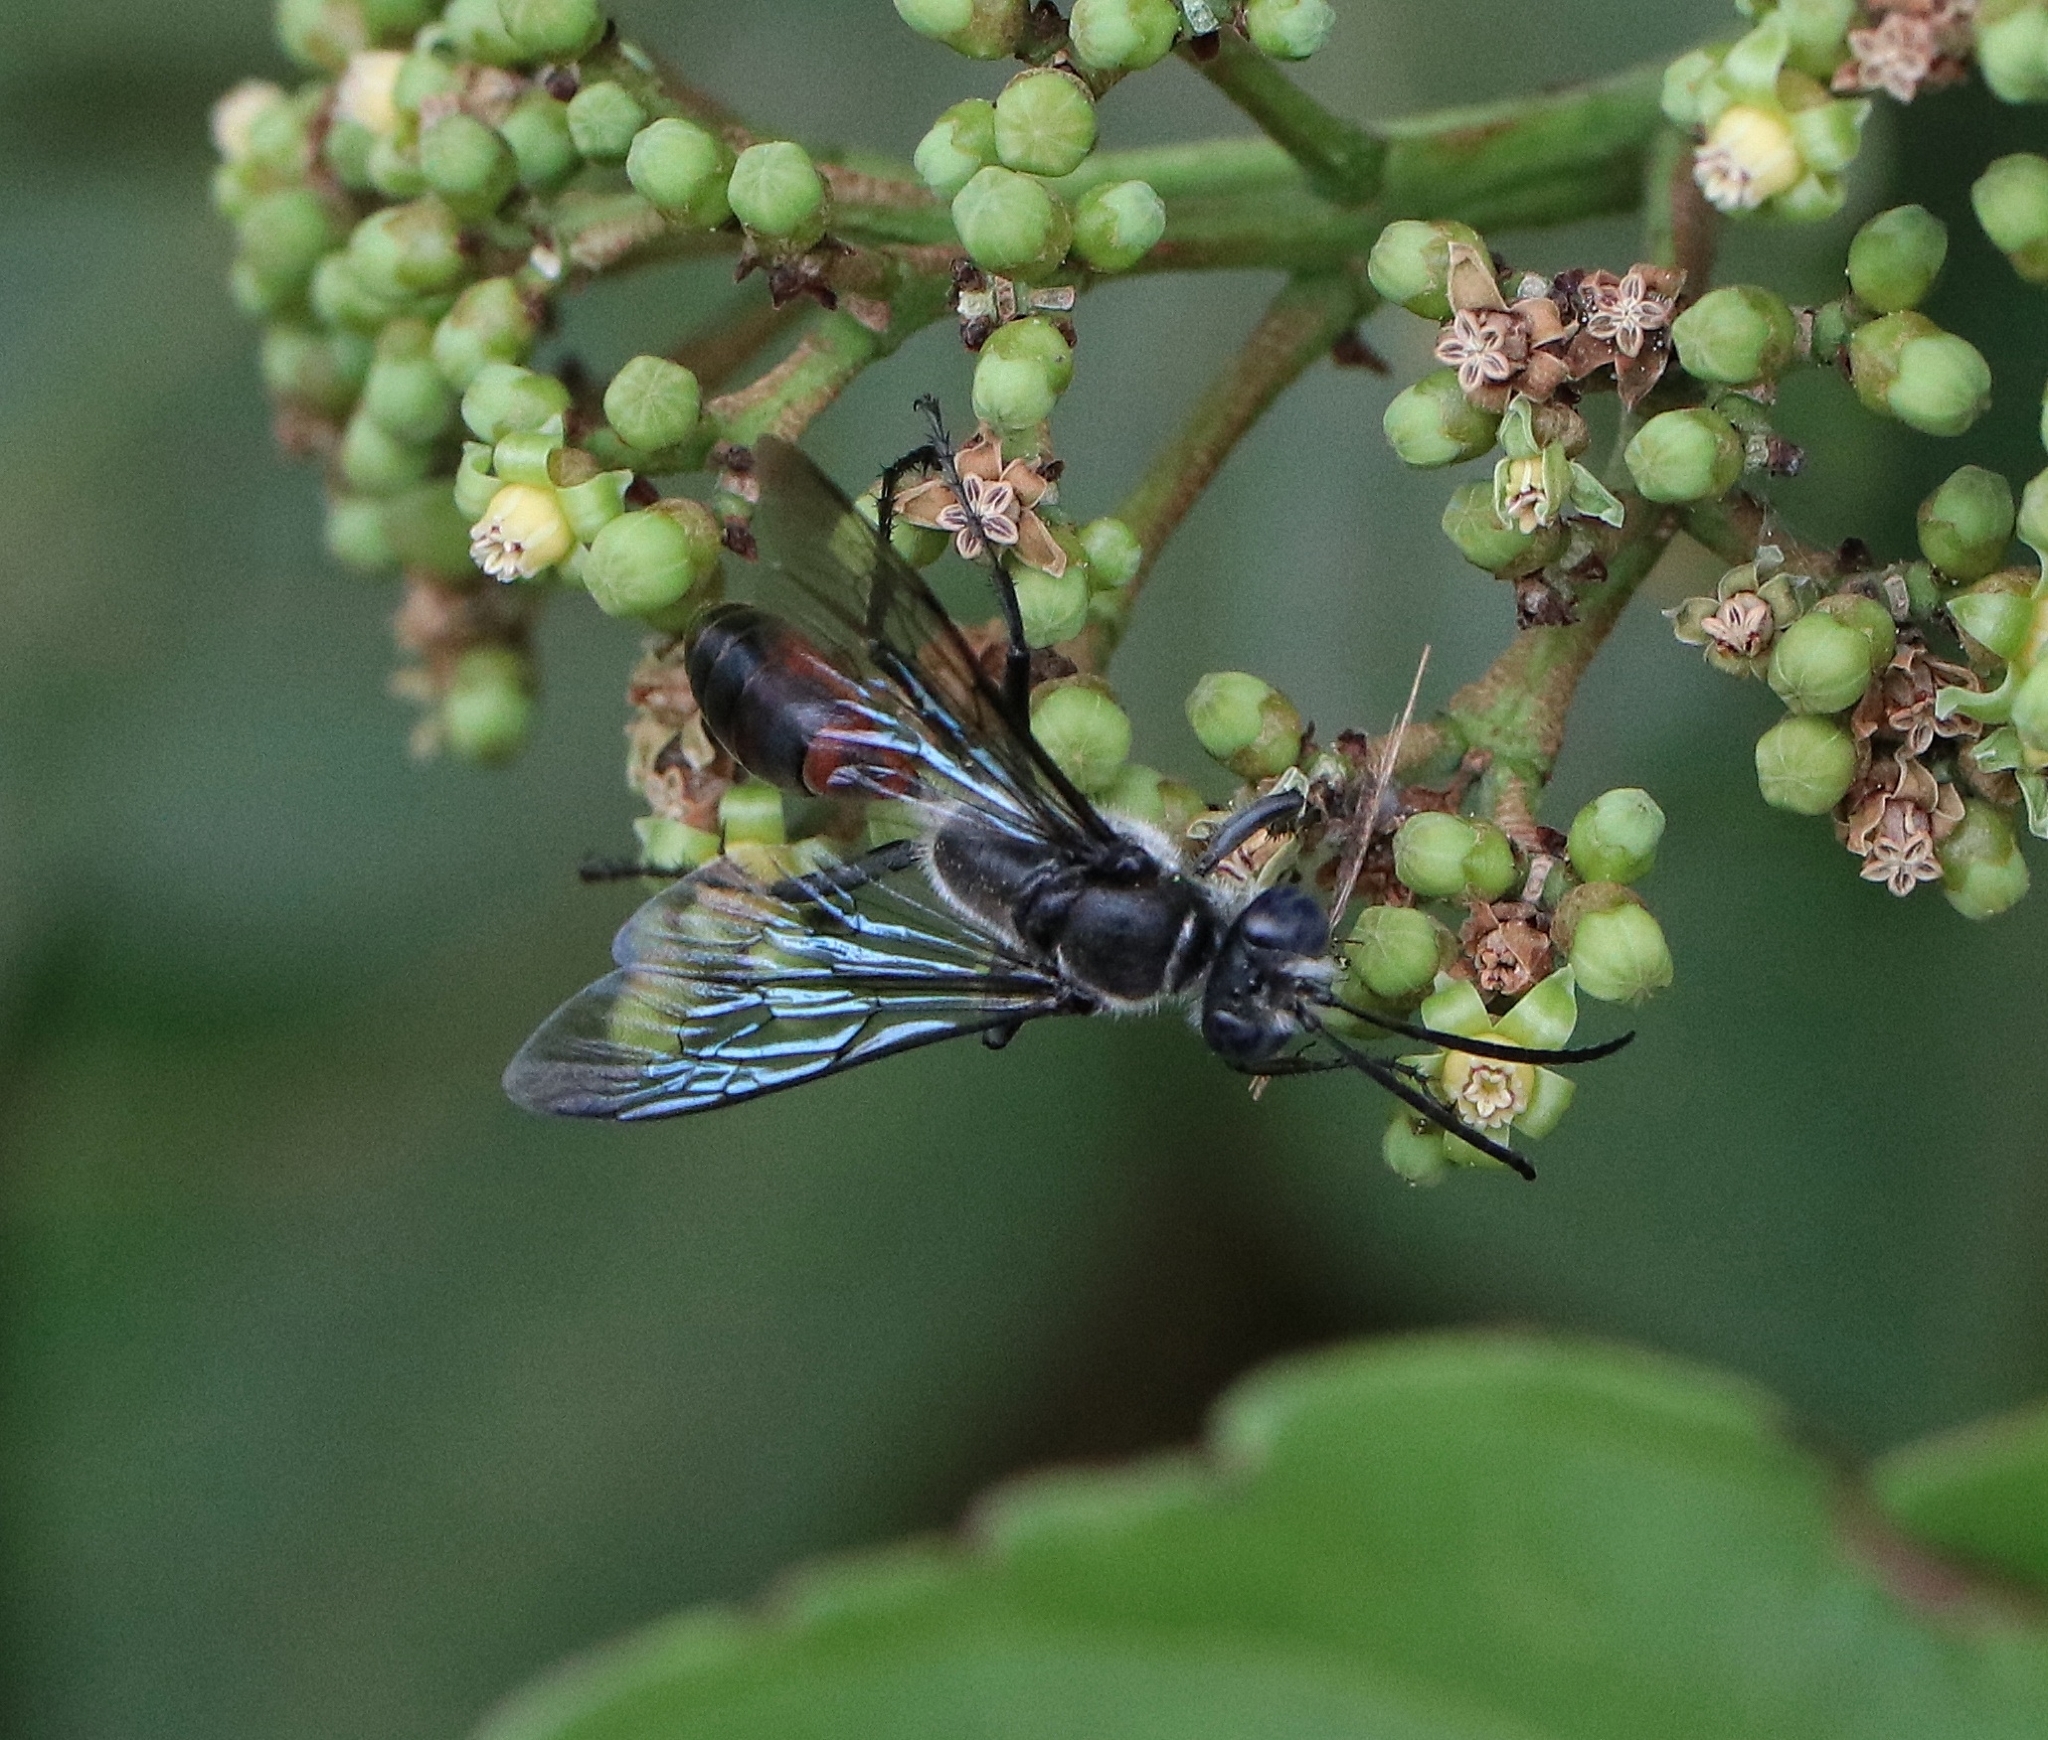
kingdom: Animalia
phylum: Arthropoda
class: Insecta
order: Hymenoptera
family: Sphecidae
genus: Sphex
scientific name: Sphex sericeus
